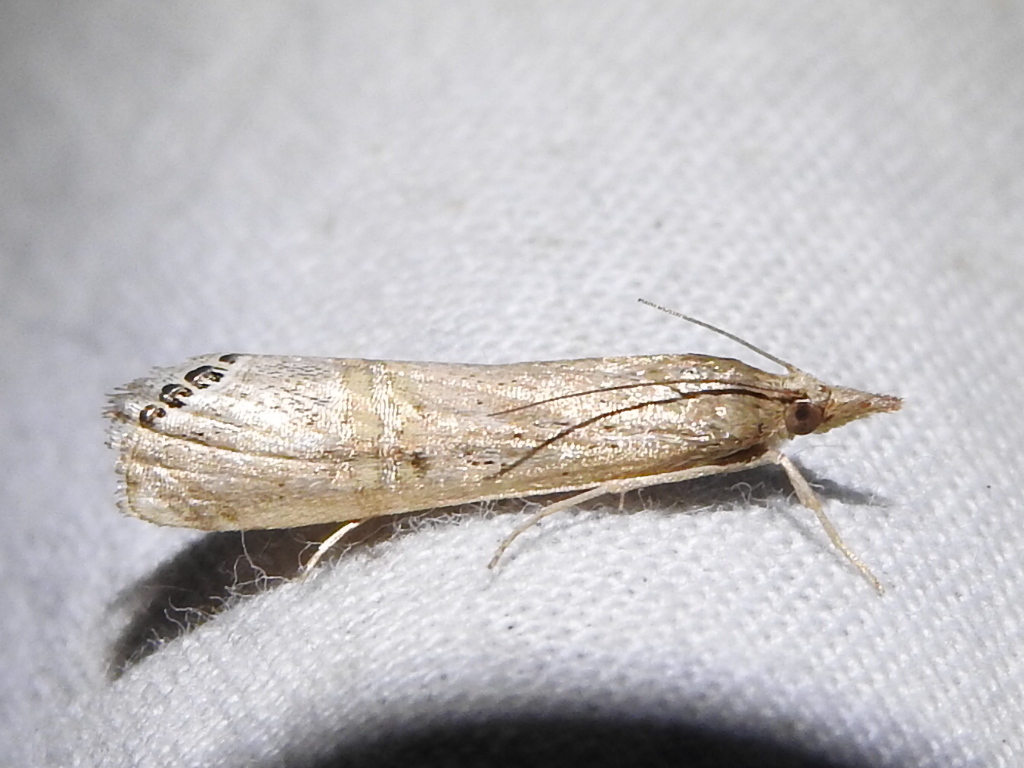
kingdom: Animalia
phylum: Arthropoda
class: Insecta
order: Lepidoptera
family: Crambidae
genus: Euchromius
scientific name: Euchromius ocellea
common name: Necklace veneer moth
